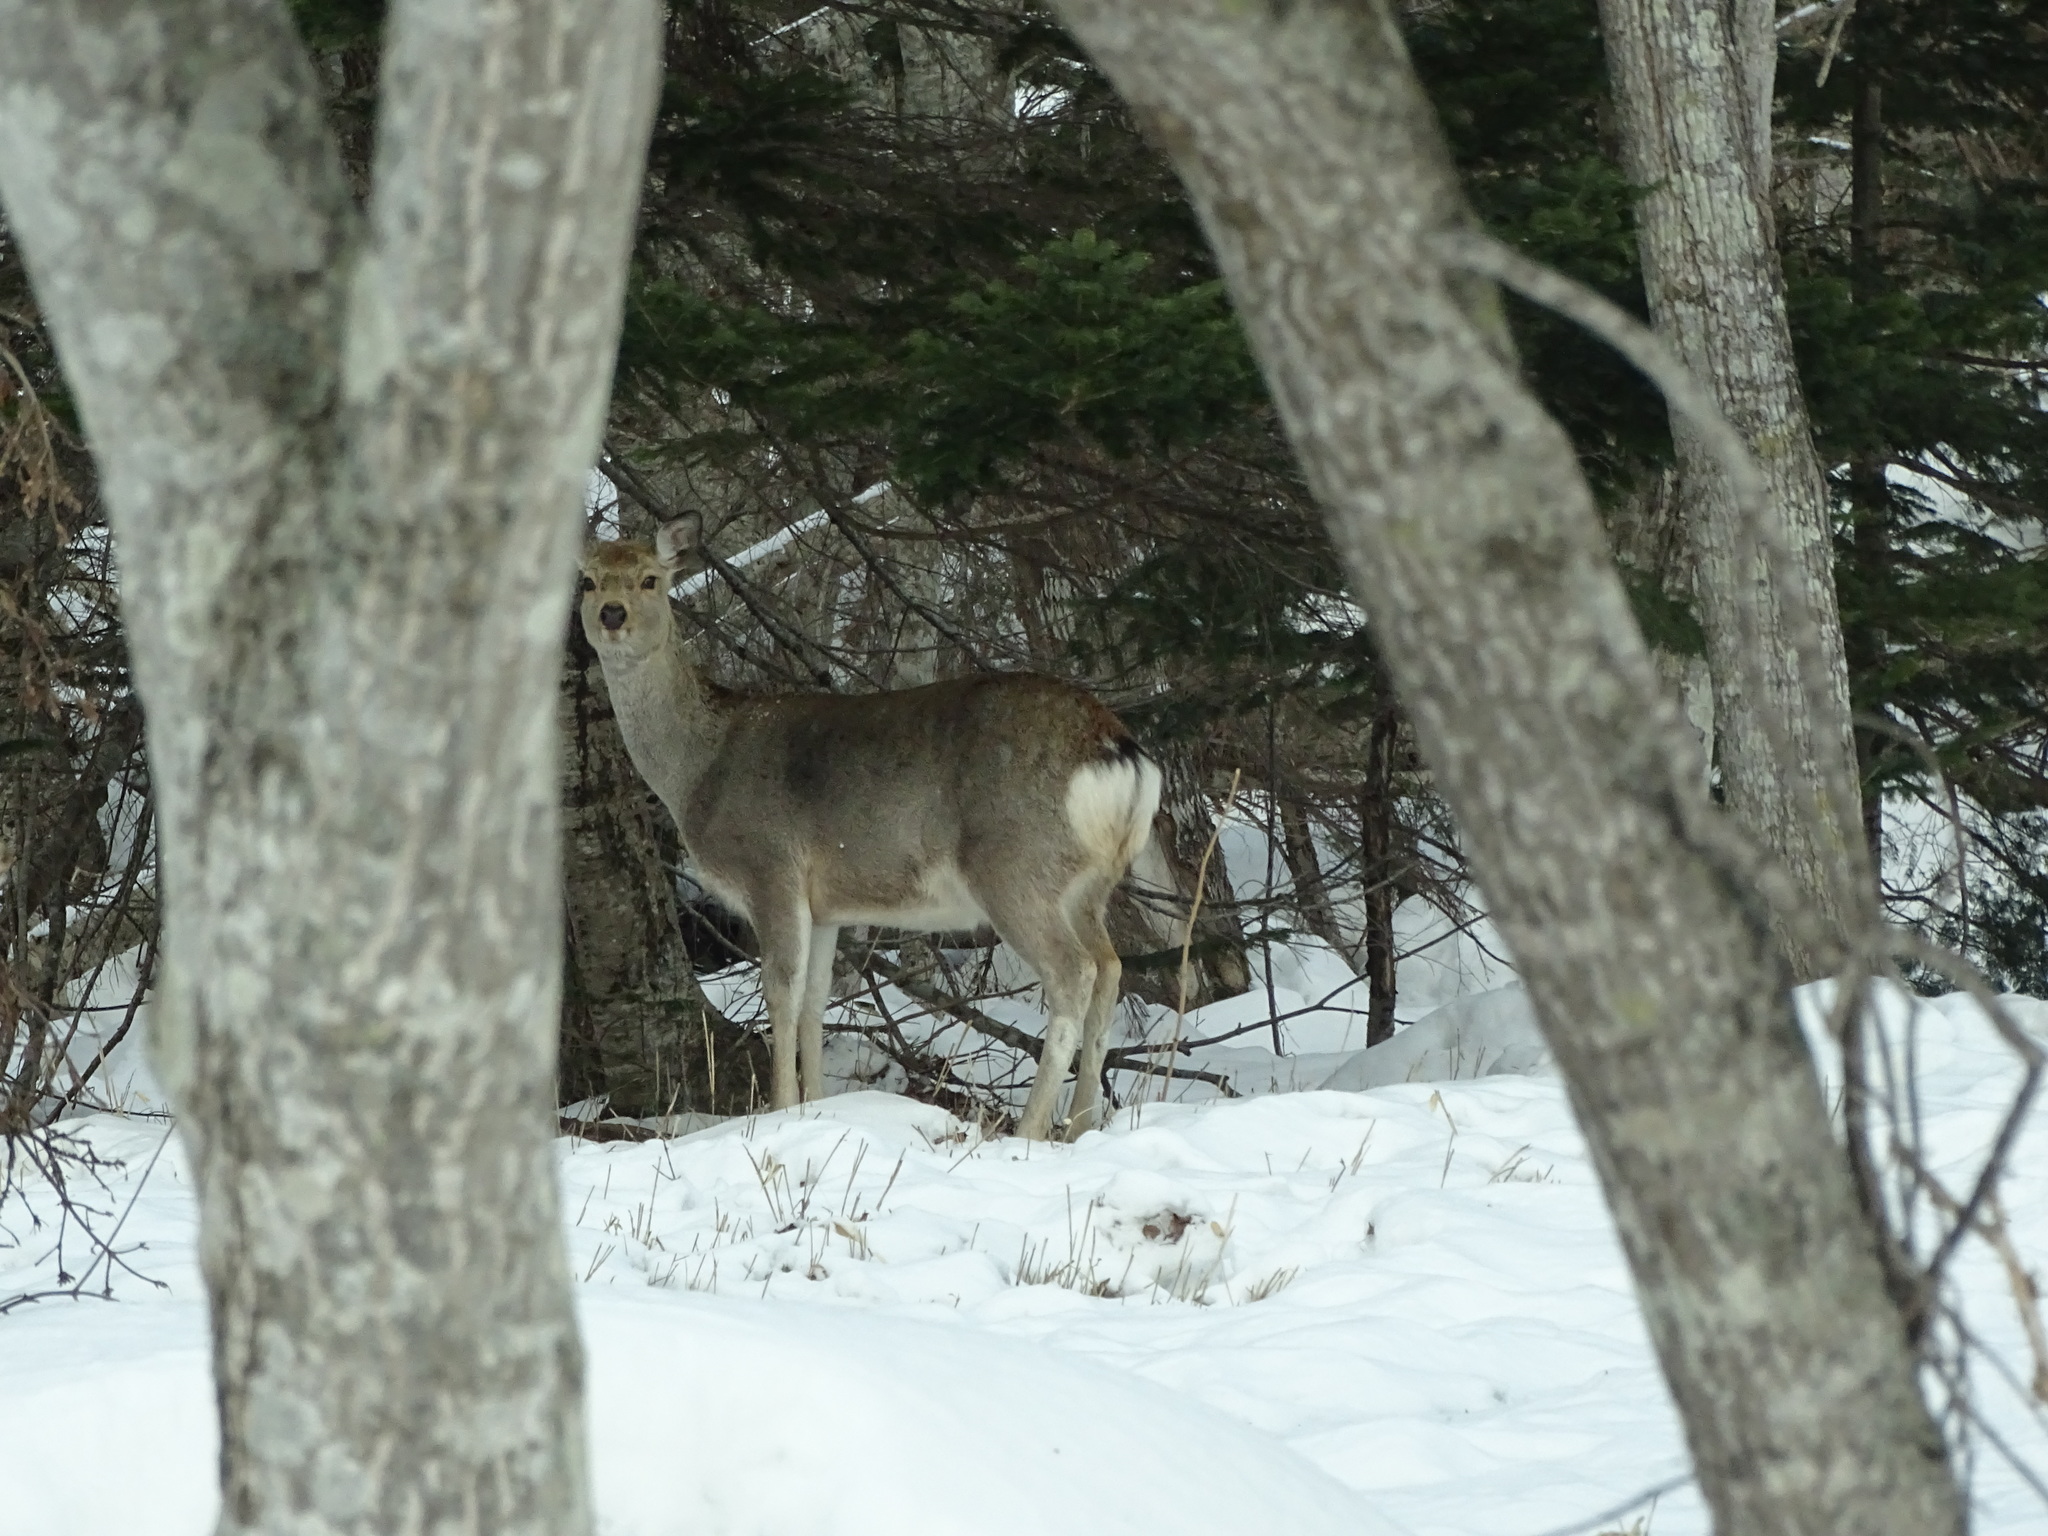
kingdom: Animalia
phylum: Chordata
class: Mammalia
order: Artiodactyla
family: Cervidae
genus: Cervus
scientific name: Cervus nippon
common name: Sika deer
